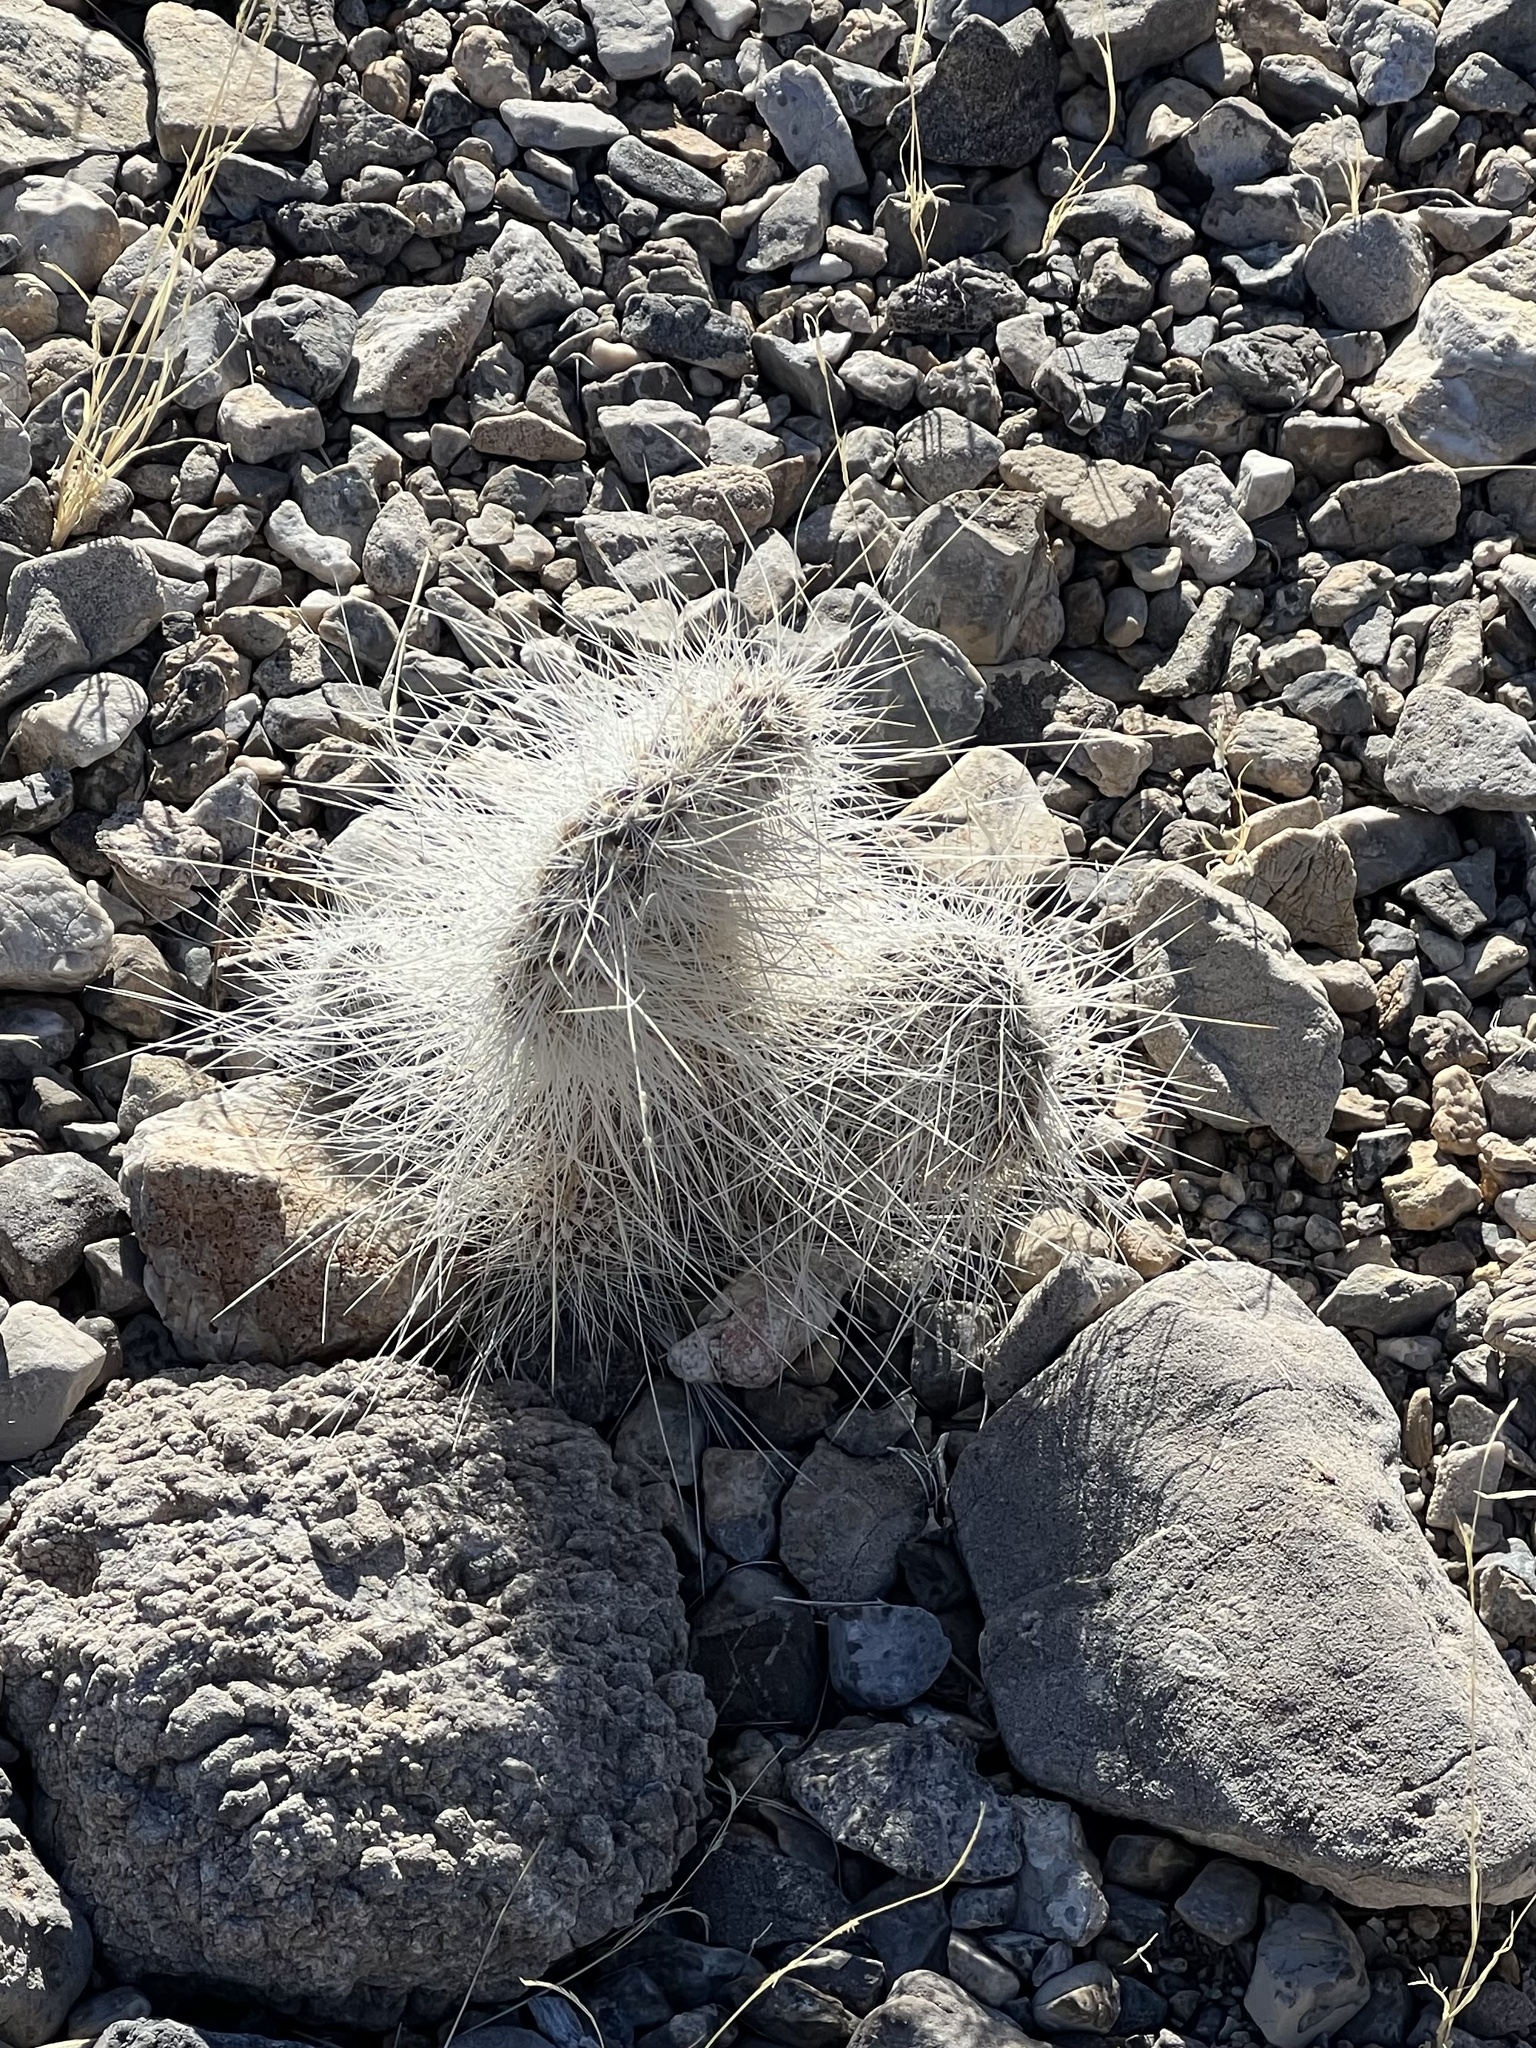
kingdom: Plantae
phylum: Tracheophyta
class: Magnoliopsida
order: Caryophyllales
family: Cactaceae
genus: Opuntia
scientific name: Opuntia polyacantha
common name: Plains prickly-pear
